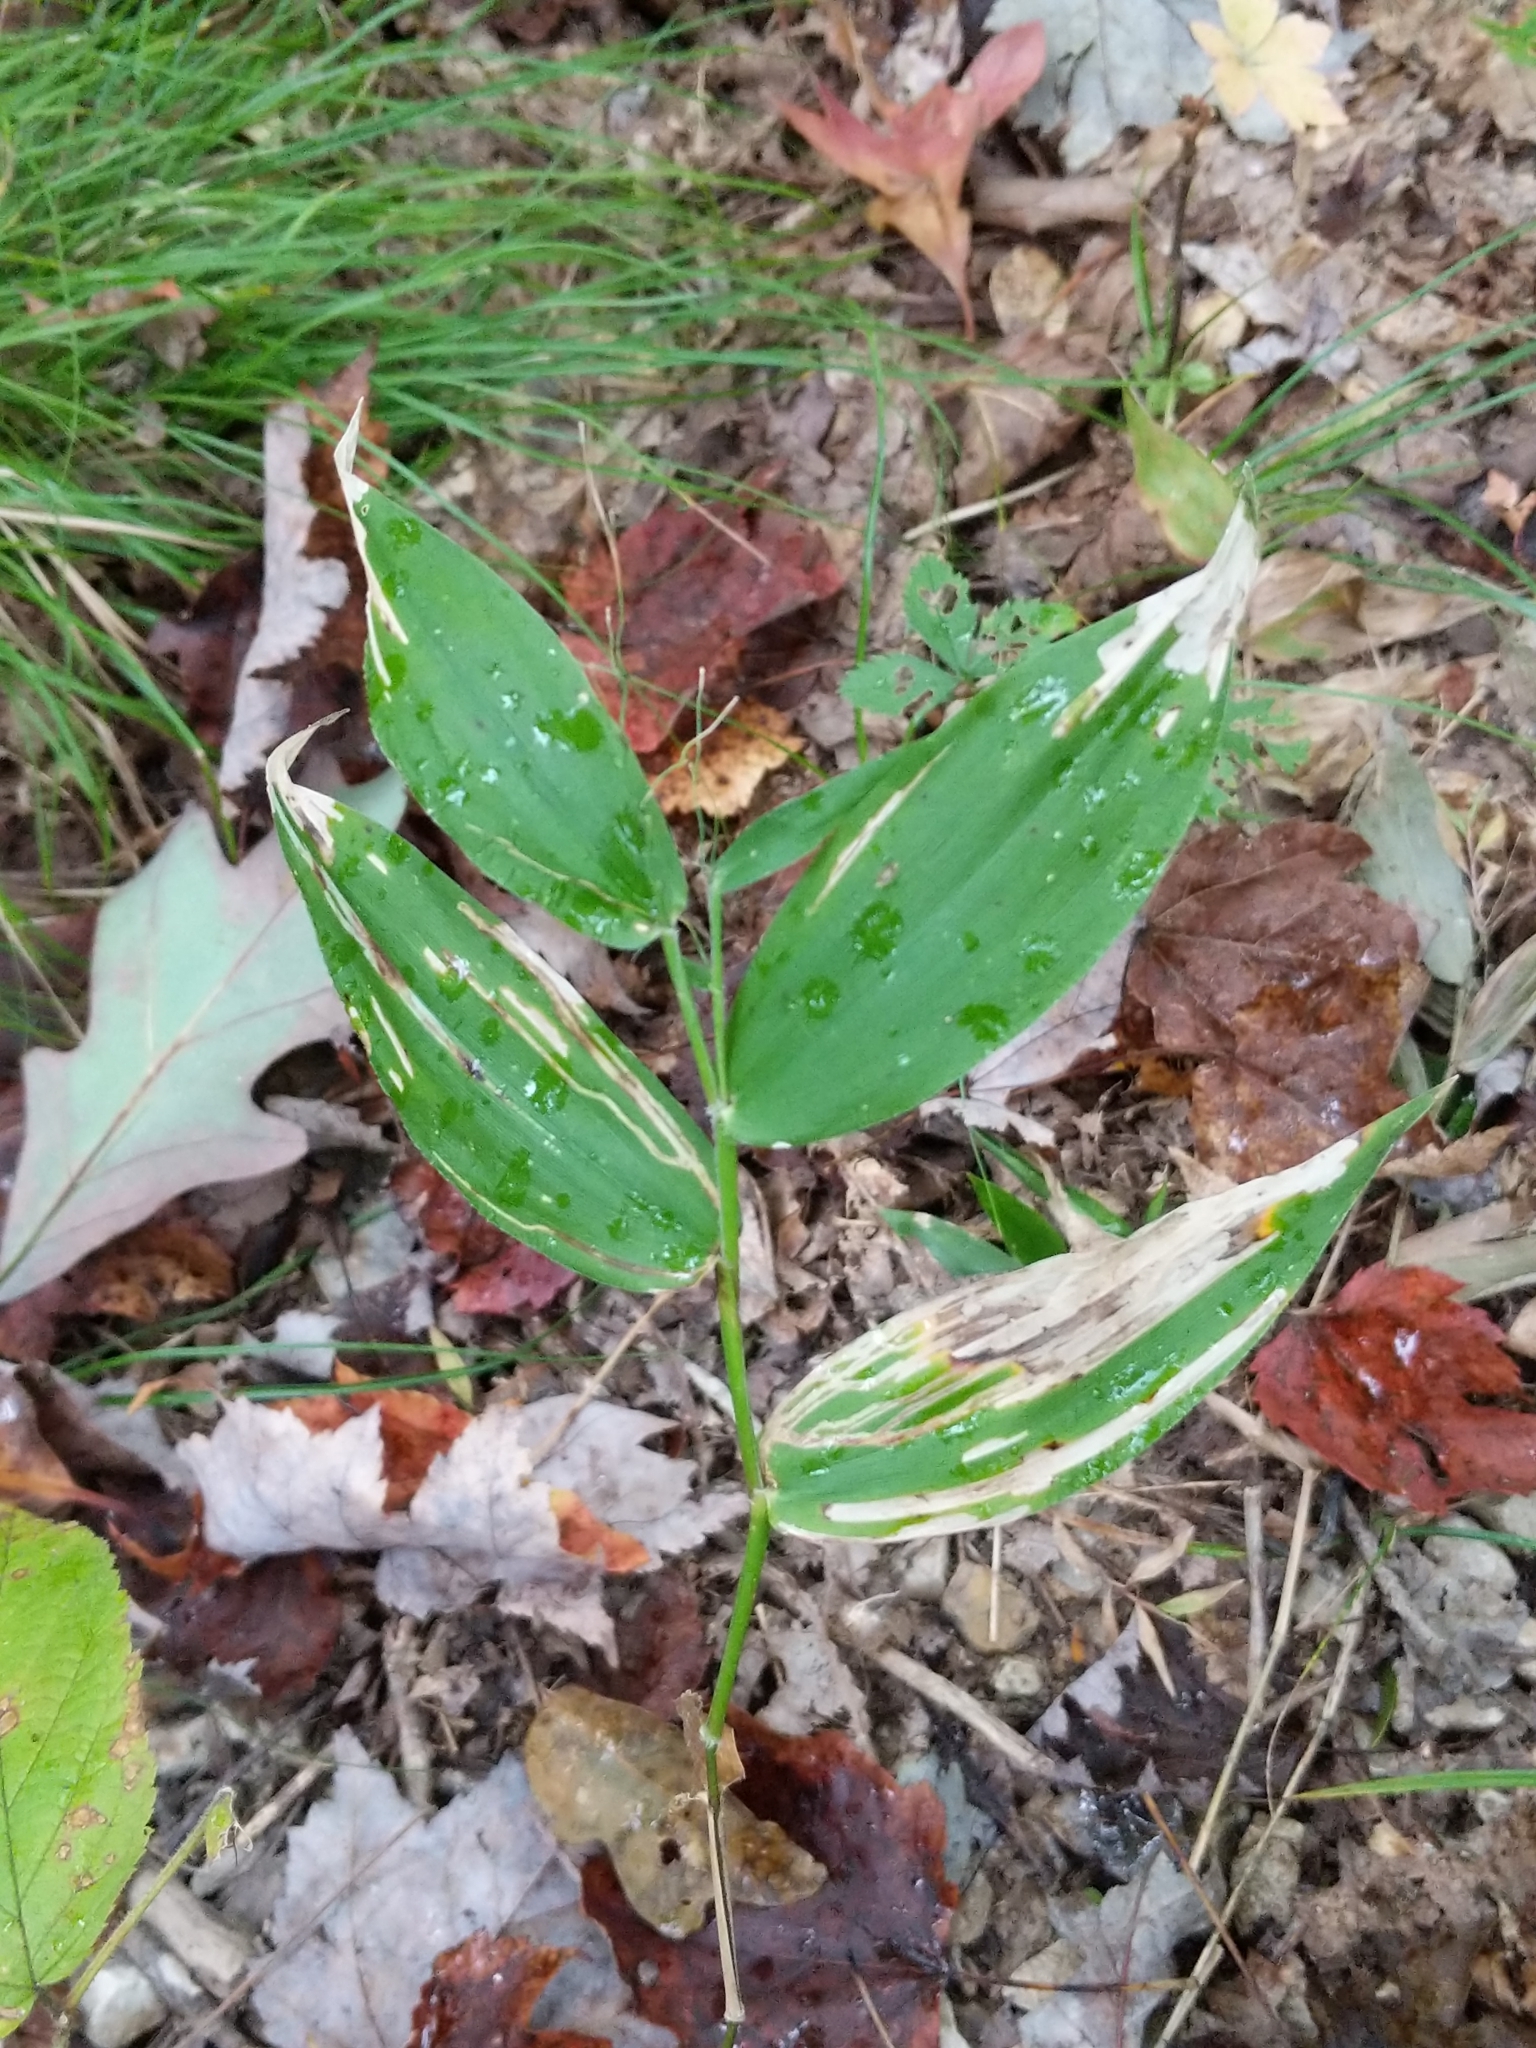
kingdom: Animalia
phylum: Arthropoda
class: Insecta
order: Diptera
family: Agromyzidae
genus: Cerodontha
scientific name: Cerodontha dorsalis
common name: Grass sheathminer fly
